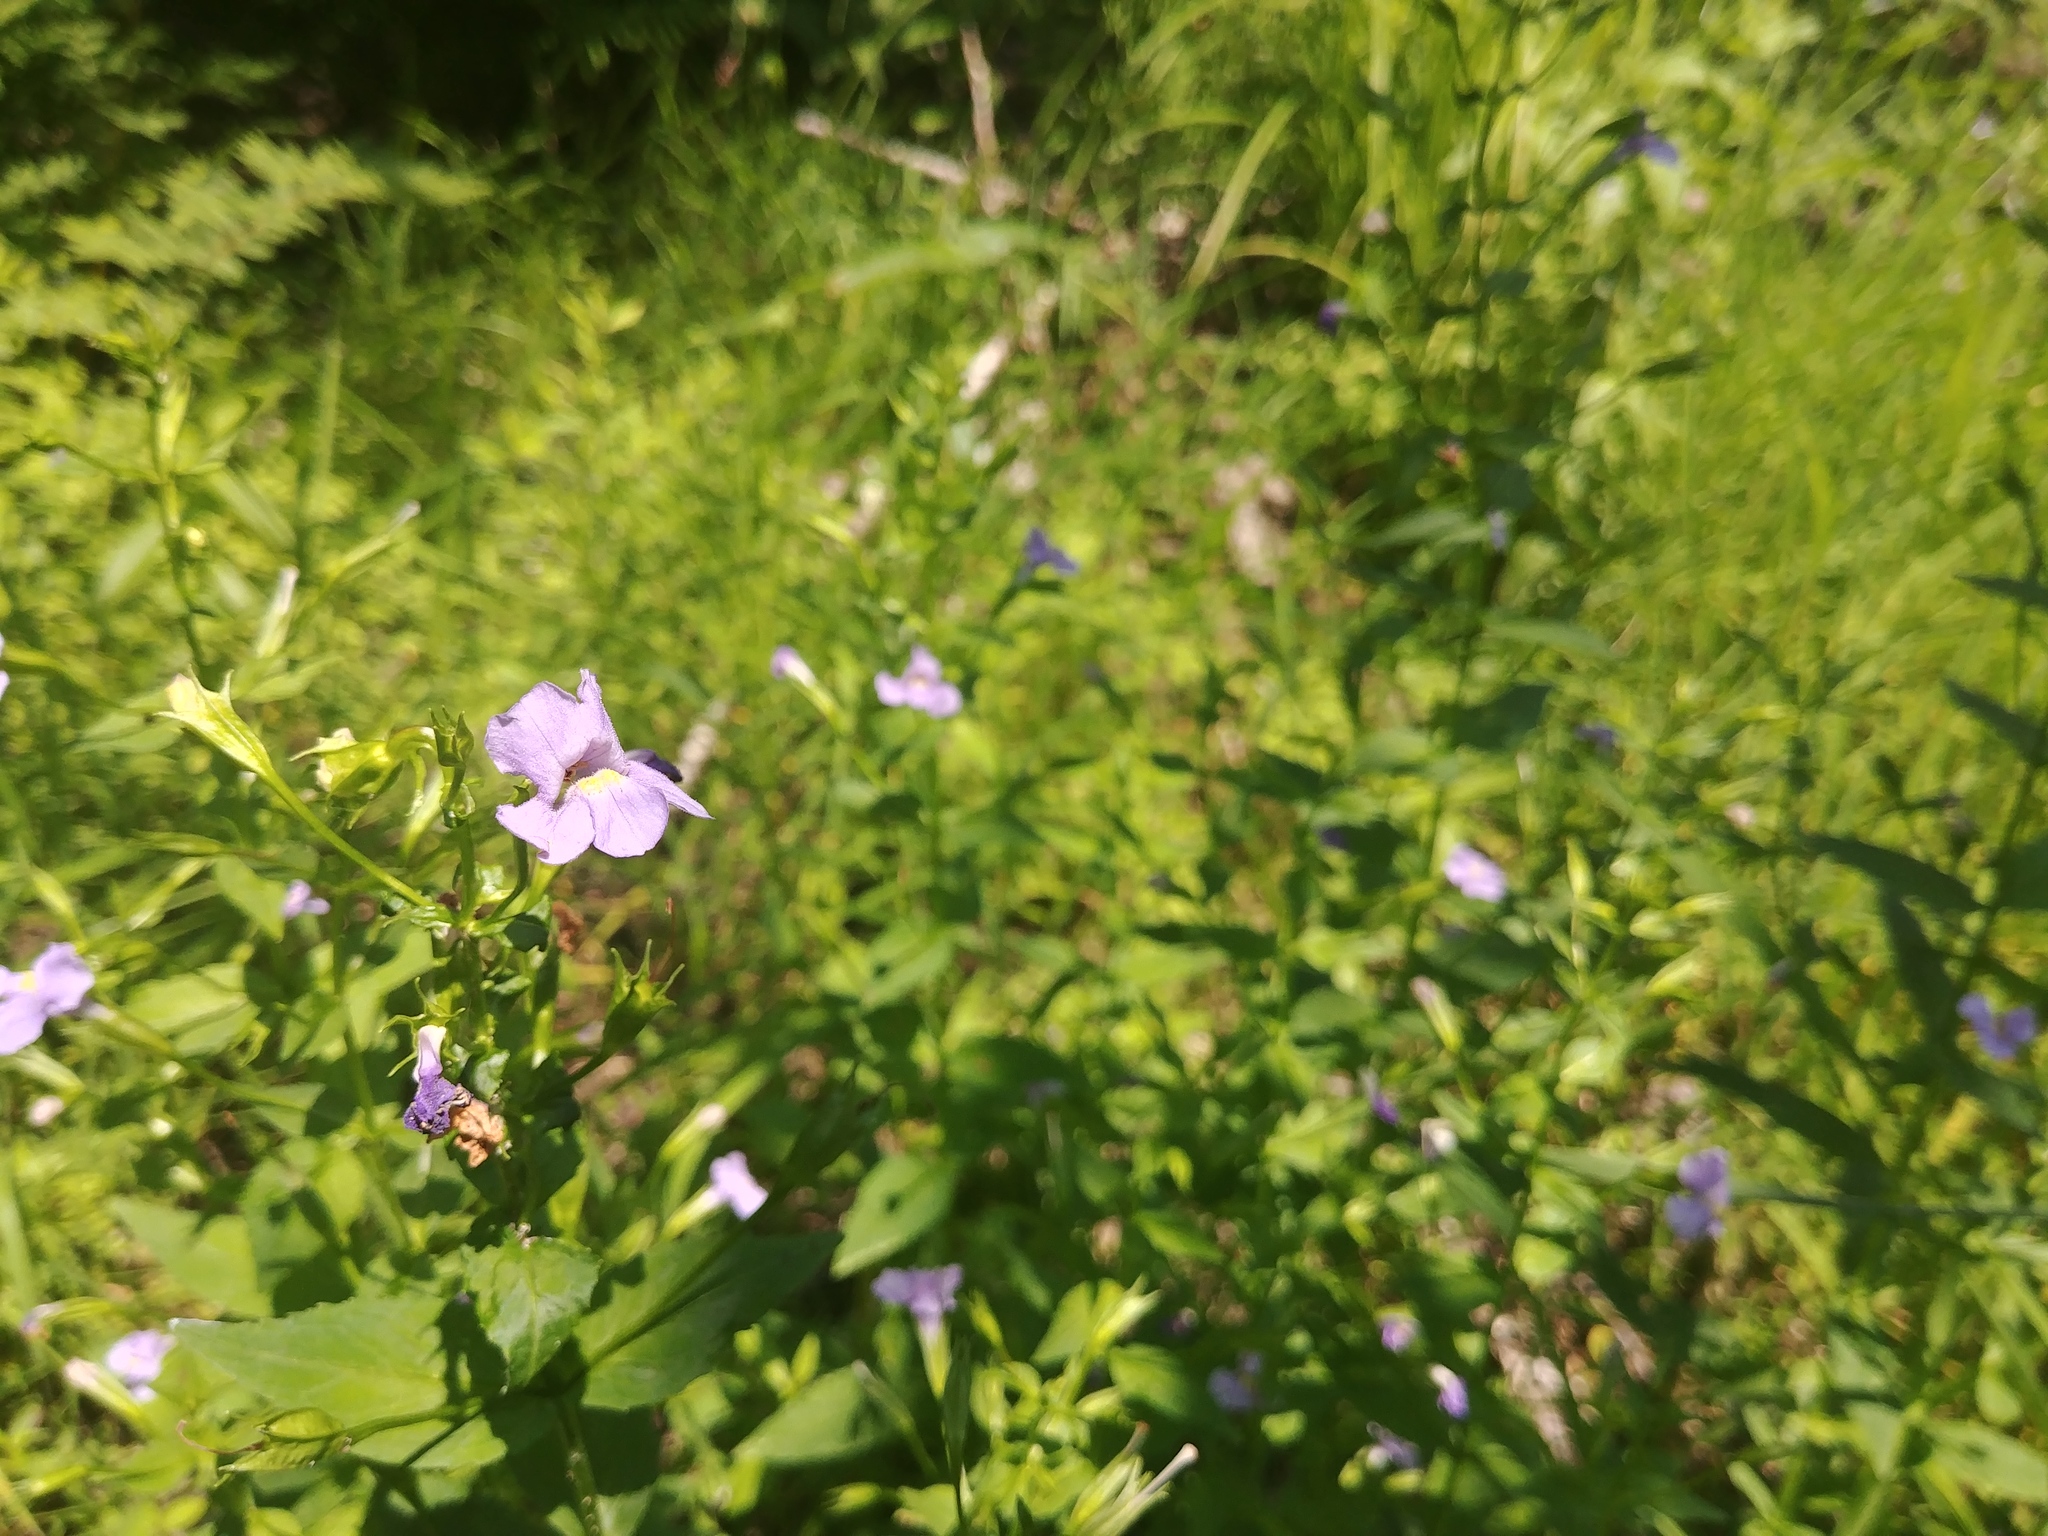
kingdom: Plantae
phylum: Tracheophyta
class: Magnoliopsida
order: Lamiales
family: Phrymaceae
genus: Mimulus
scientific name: Mimulus ringens
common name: Allegheny monkeyflower
